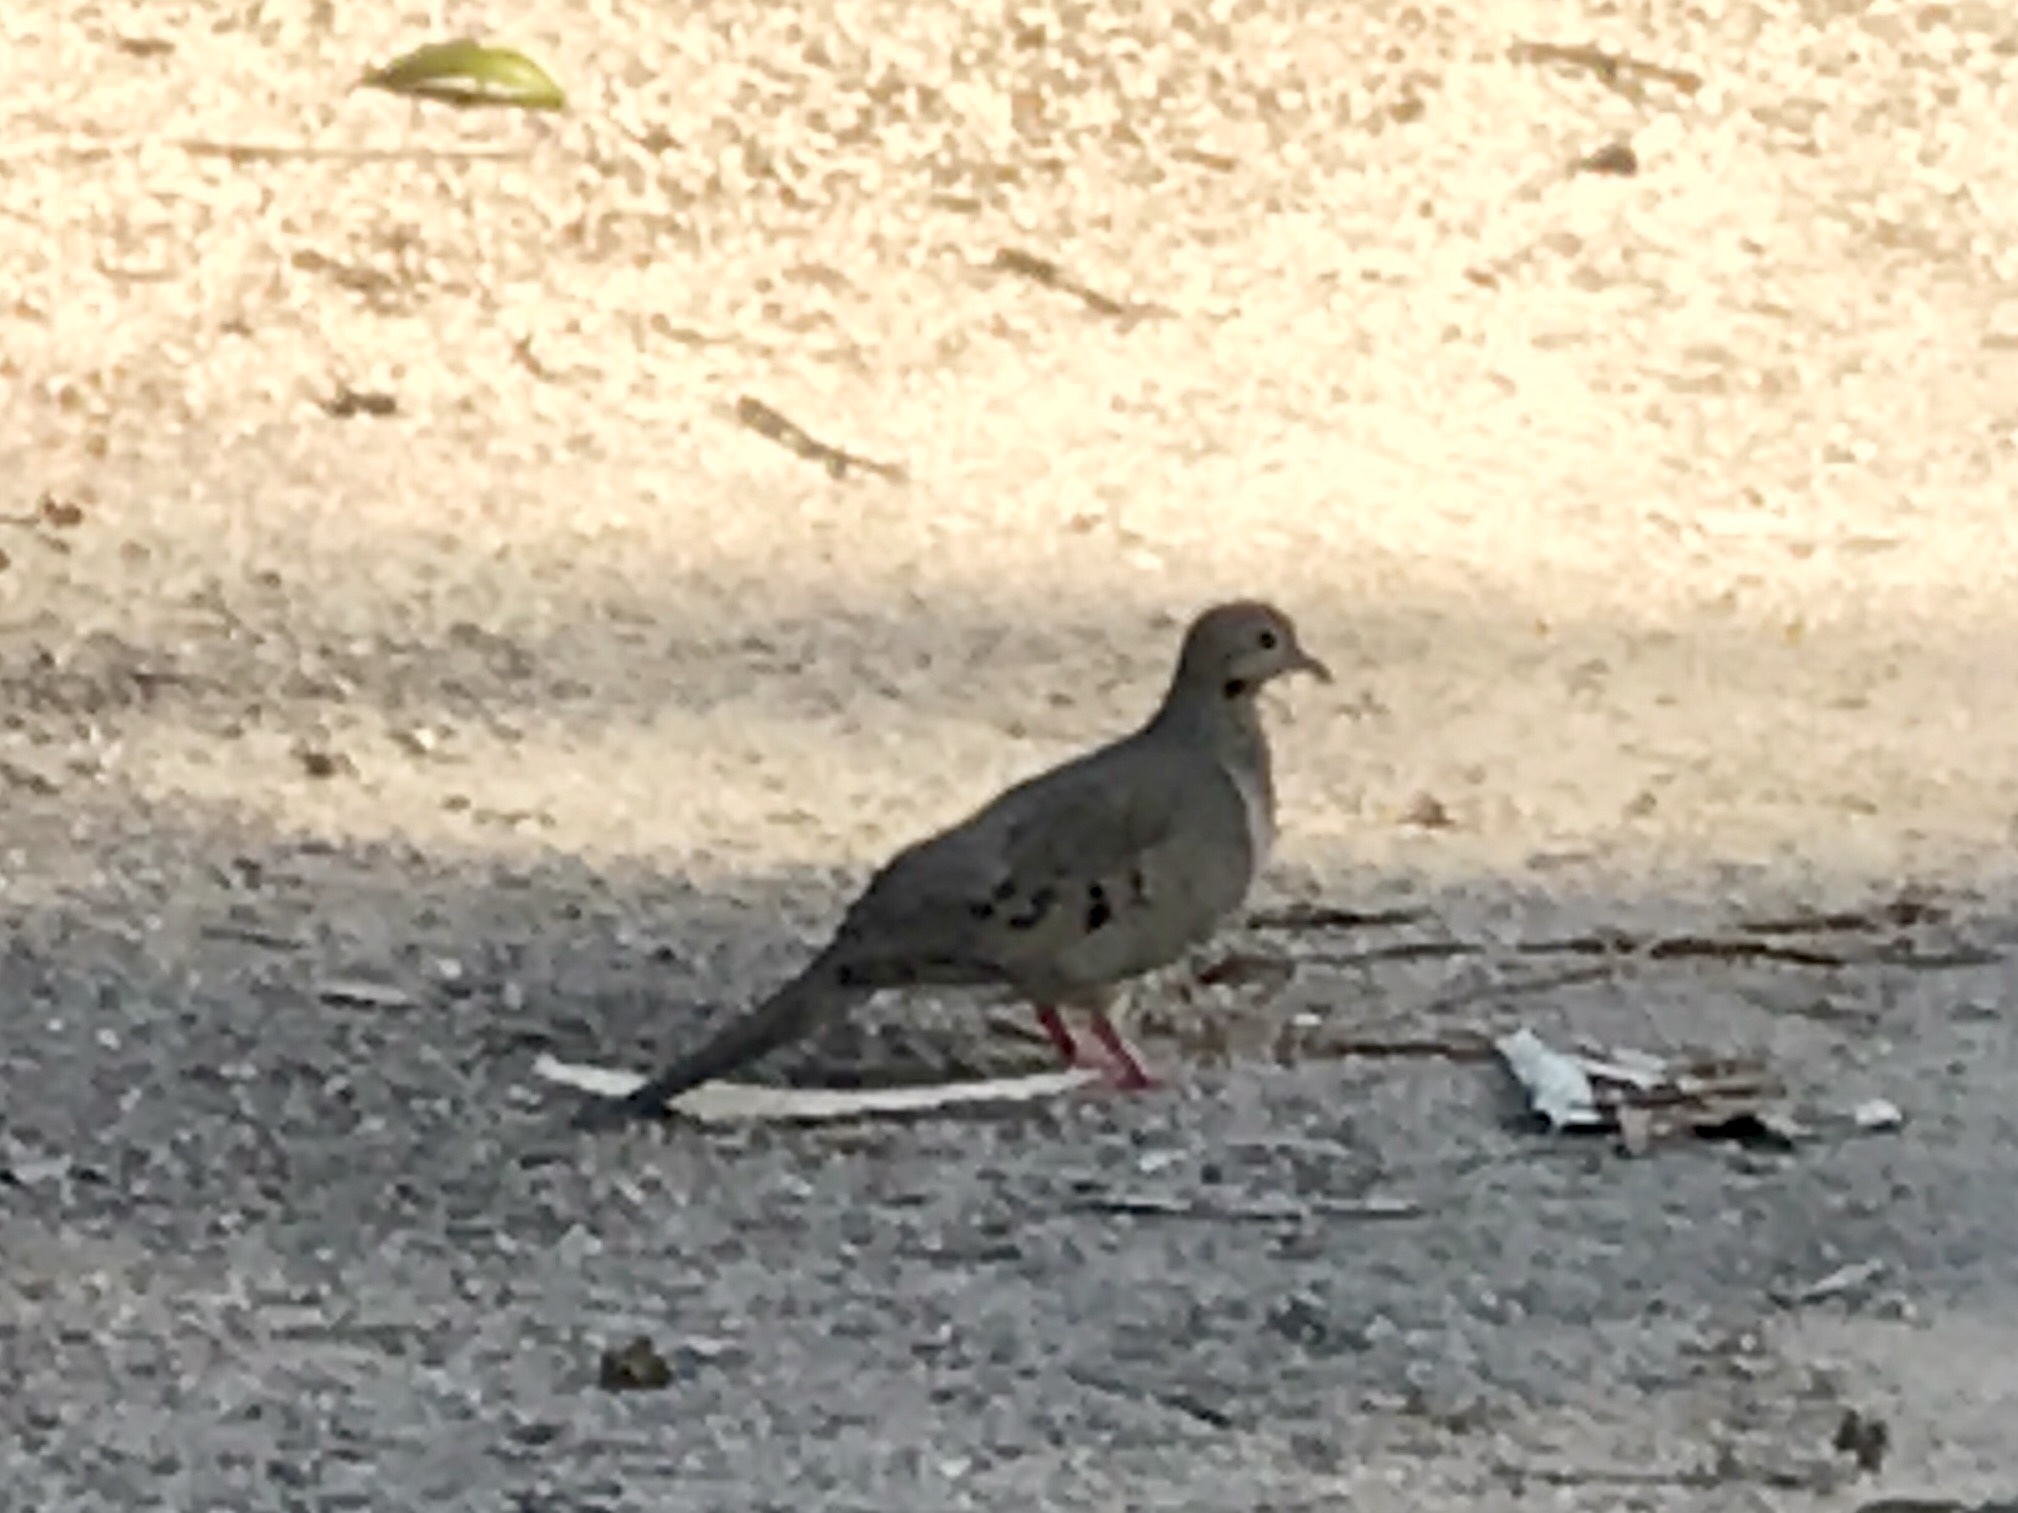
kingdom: Animalia
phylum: Chordata
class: Aves
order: Columbiformes
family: Columbidae
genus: Zenaida
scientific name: Zenaida macroura
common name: Mourning dove
